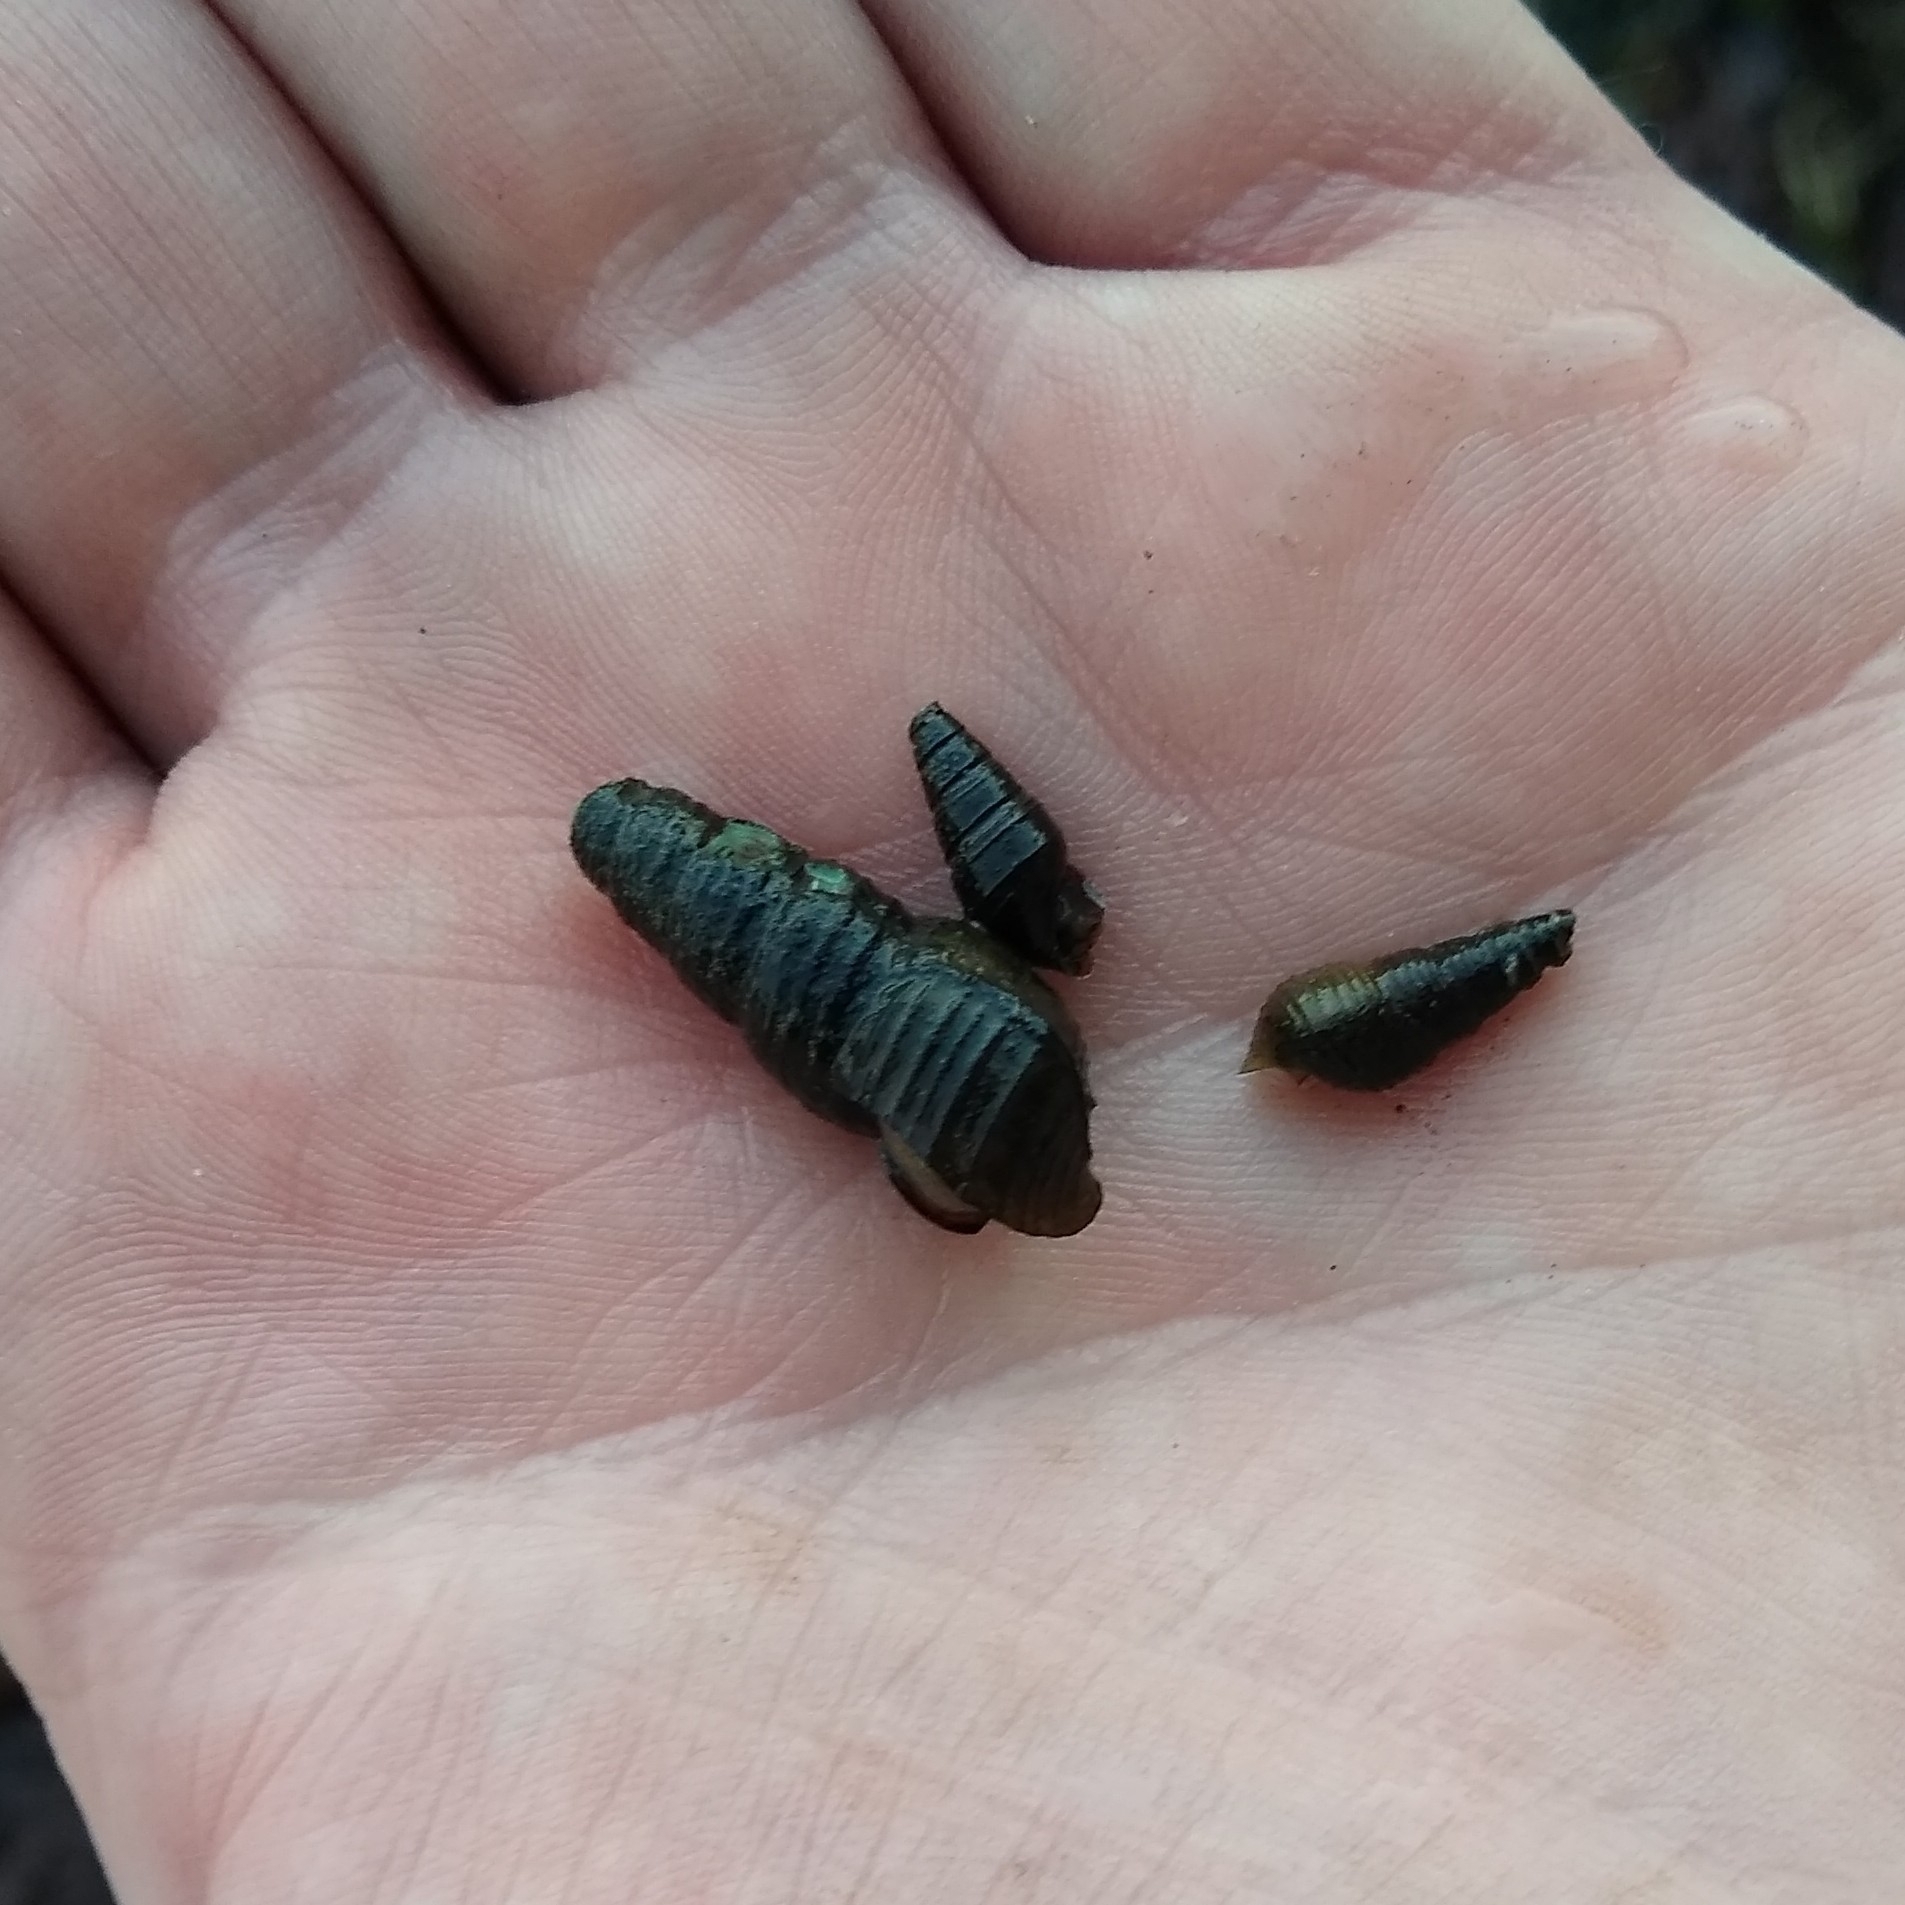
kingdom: Animalia
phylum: Mollusca
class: Gastropoda
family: Pleuroceridae
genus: Elimia
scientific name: Elimia virginica
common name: Piedmont elimia
